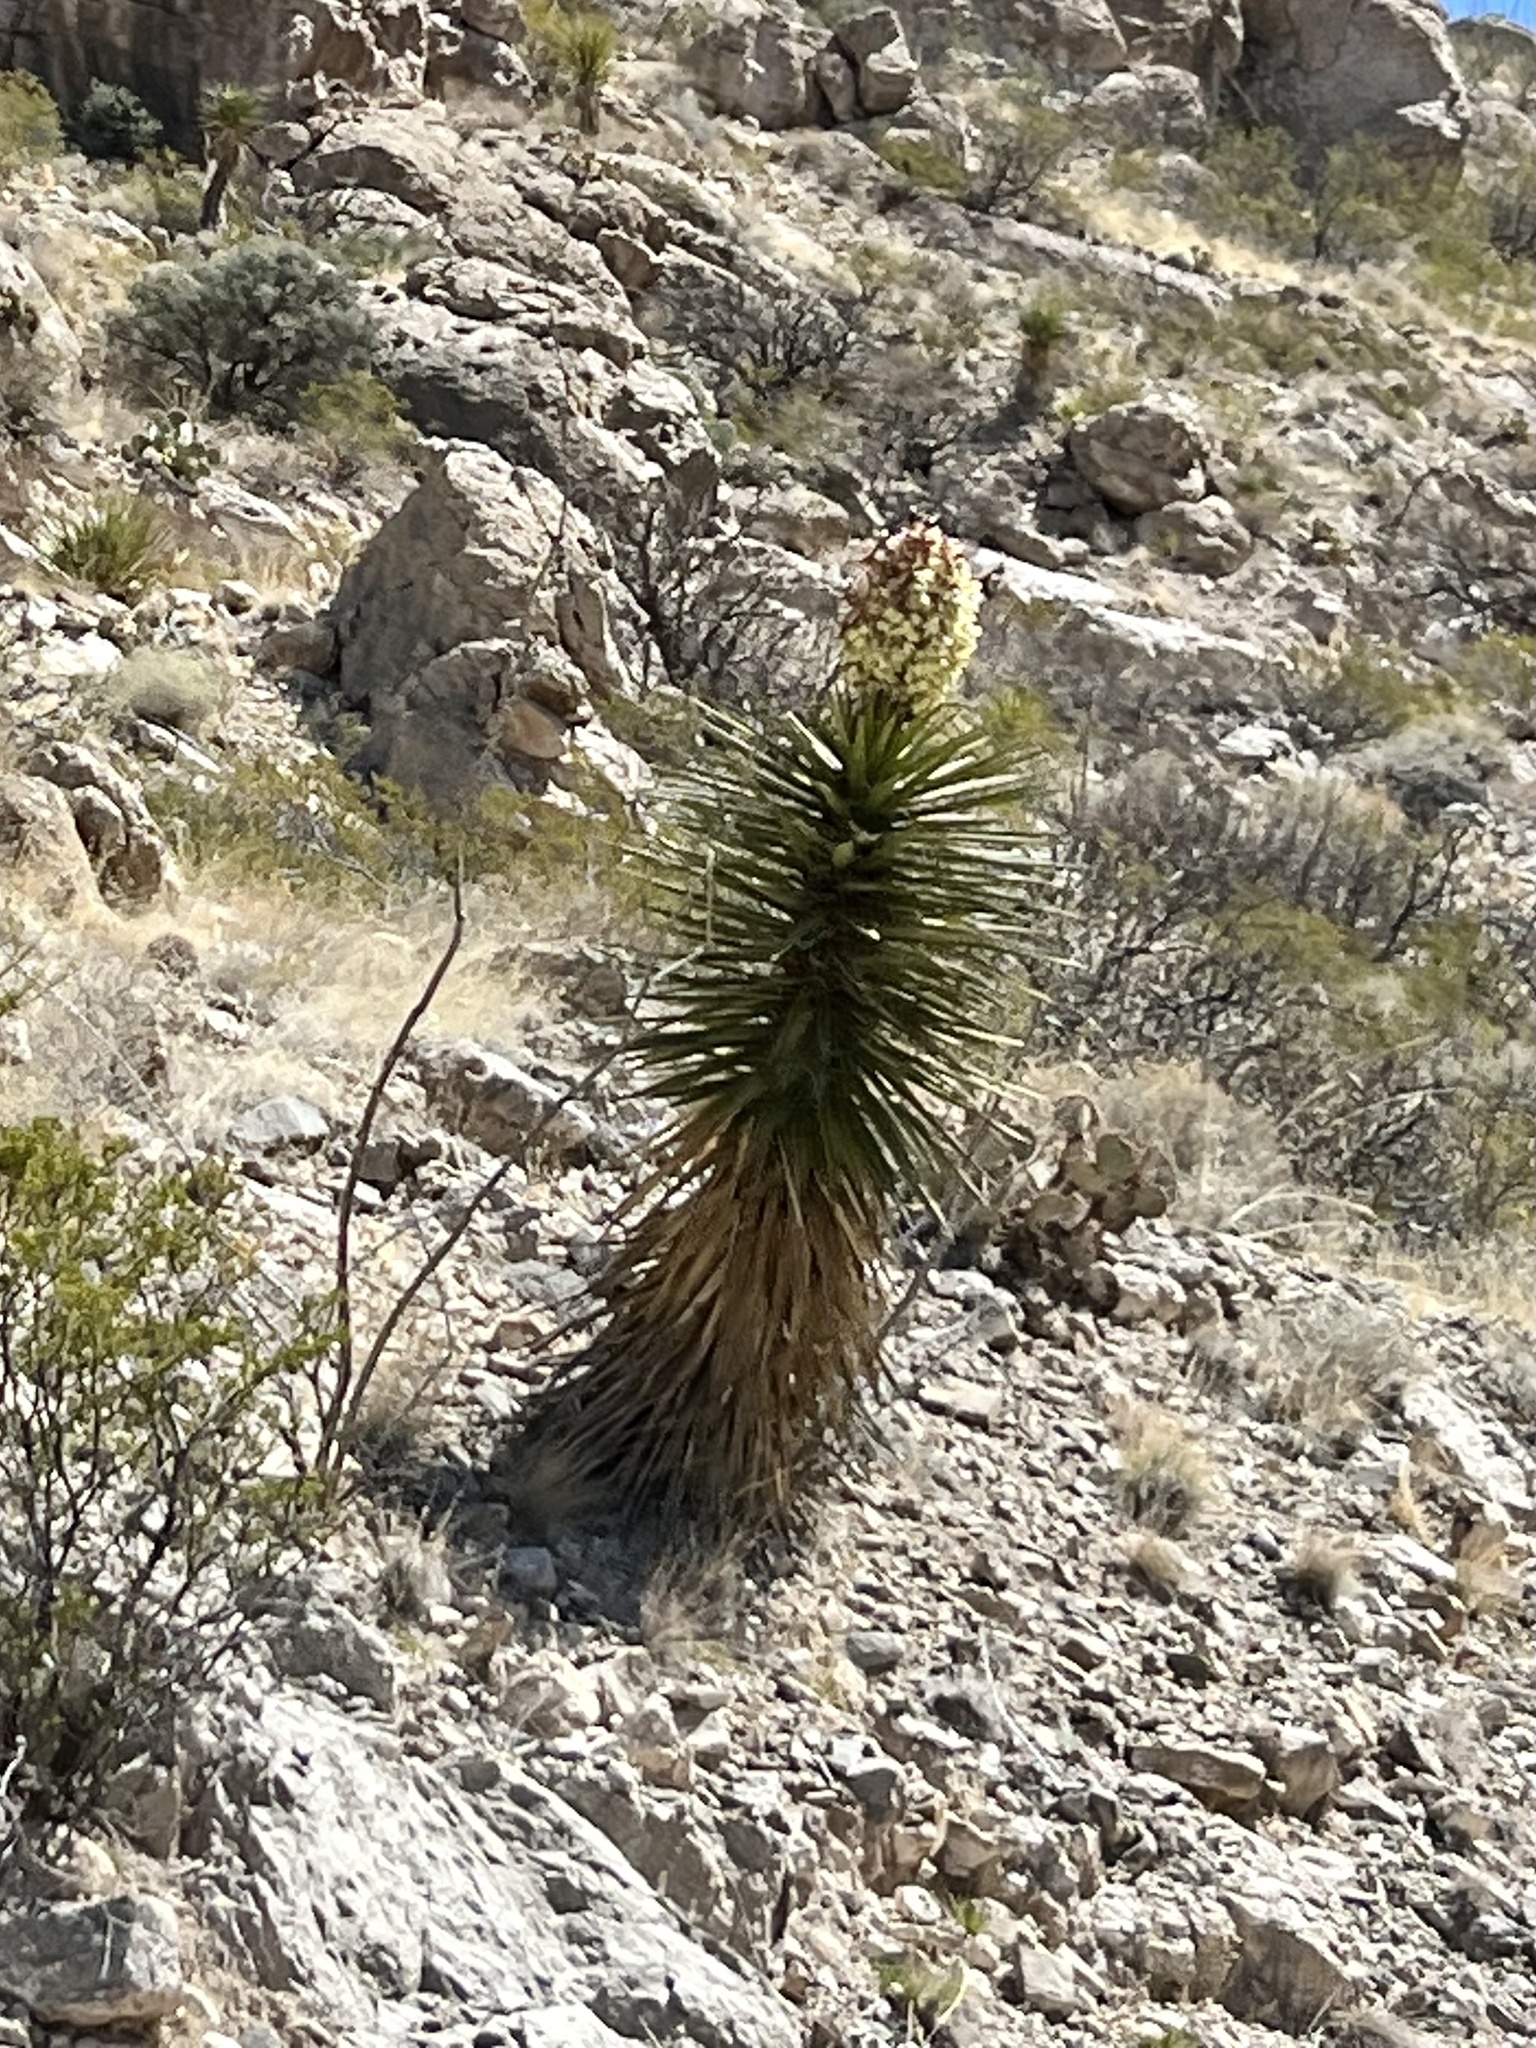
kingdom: Plantae
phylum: Tracheophyta
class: Liliopsida
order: Asparagales
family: Asparagaceae
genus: Yucca
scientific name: Yucca treculiana
